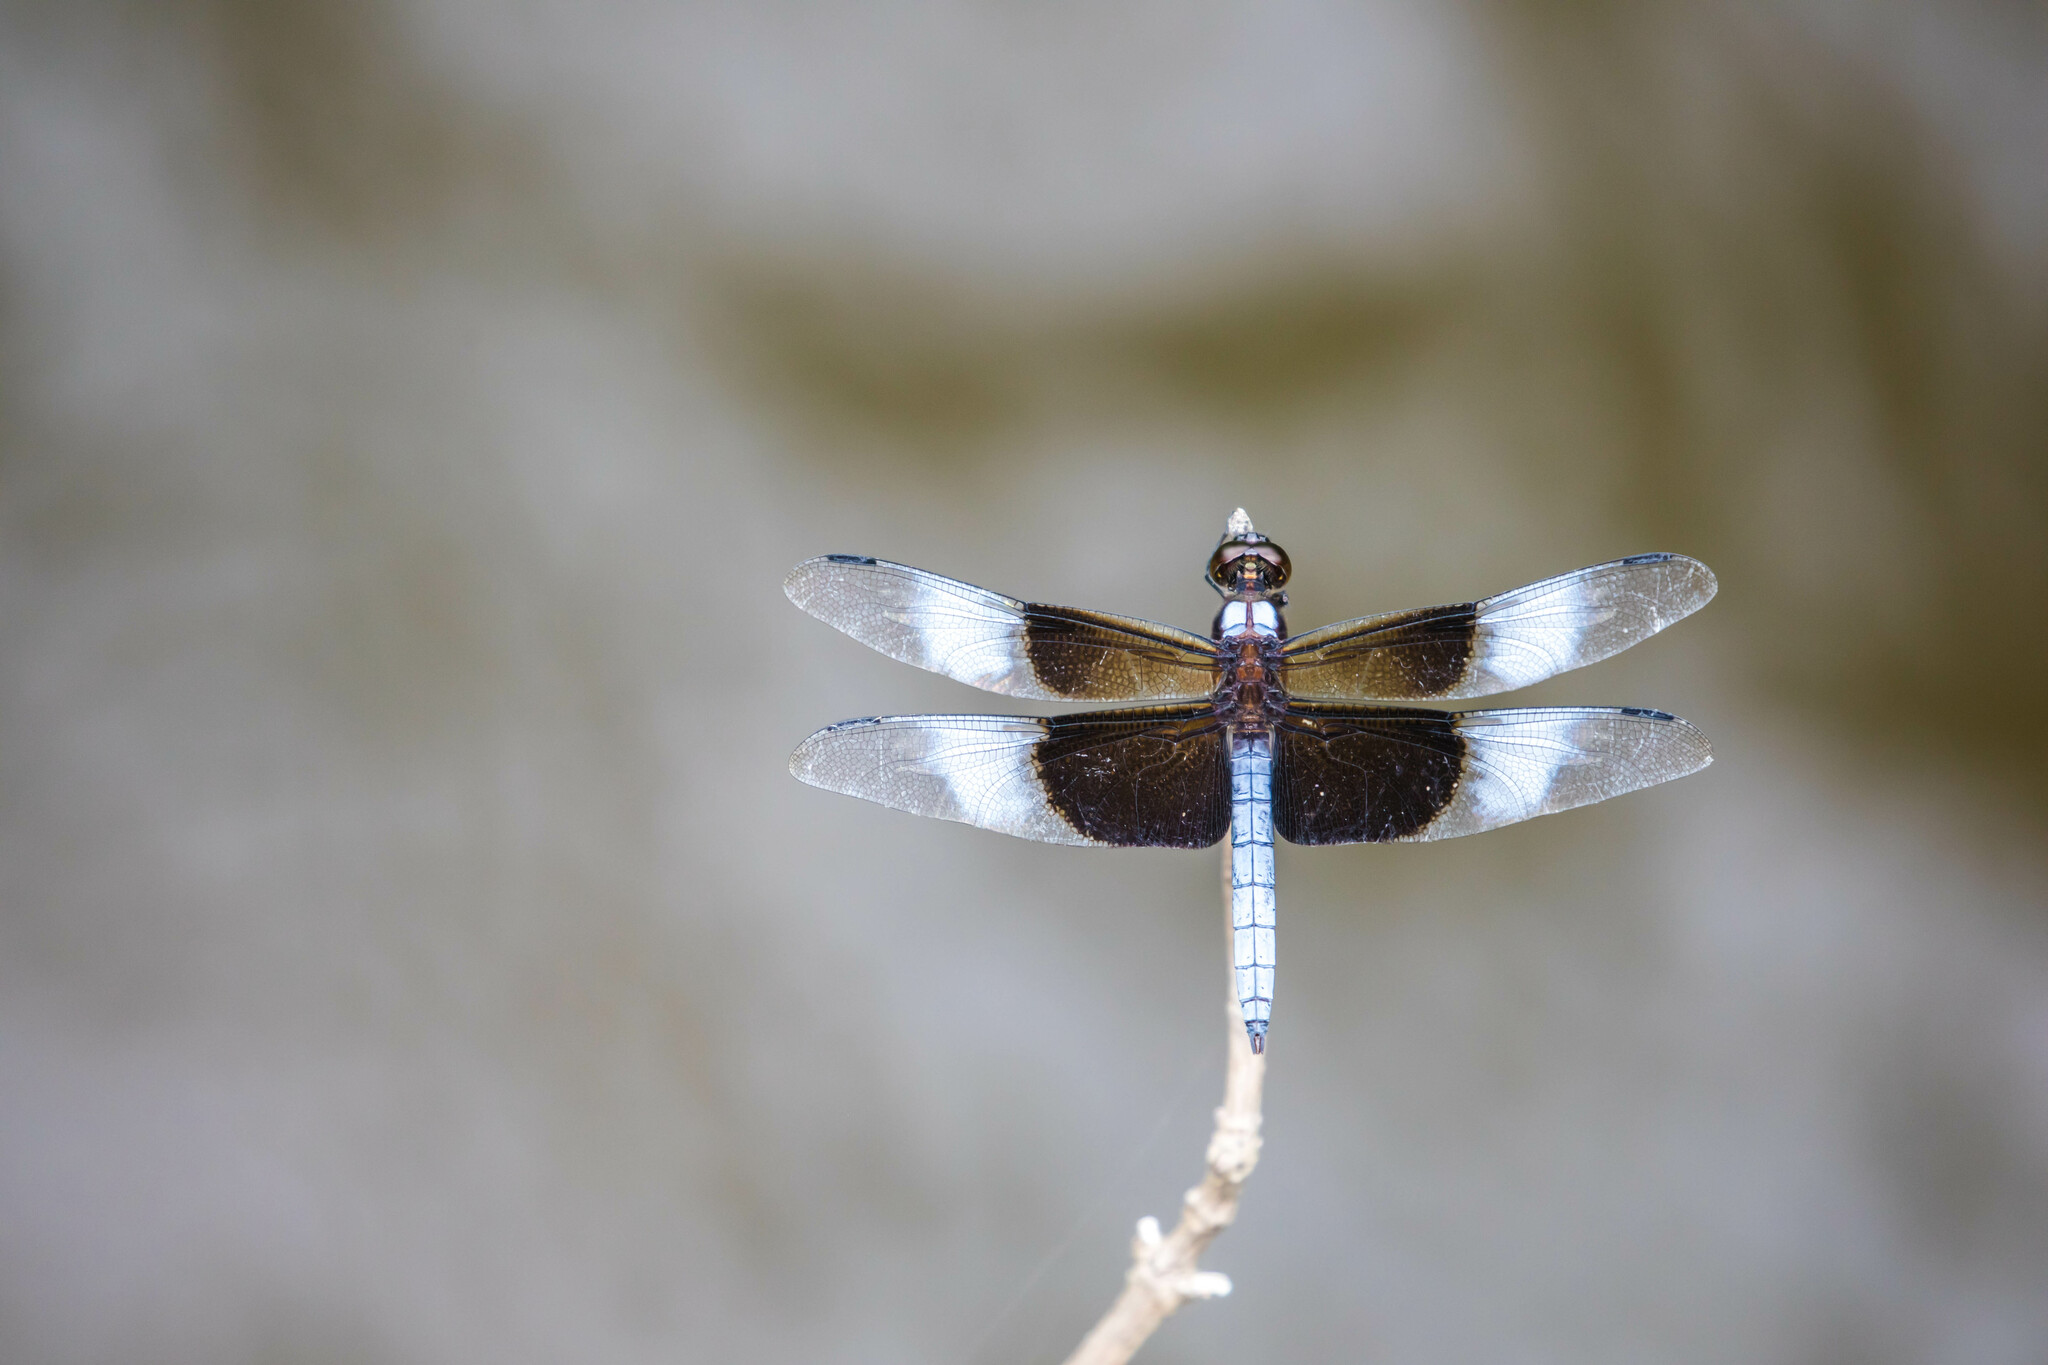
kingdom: Animalia
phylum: Arthropoda
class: Insecta
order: Odonata
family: Libellulidae
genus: Libellula
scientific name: Libellula luctuosa
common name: Widow skimmer
